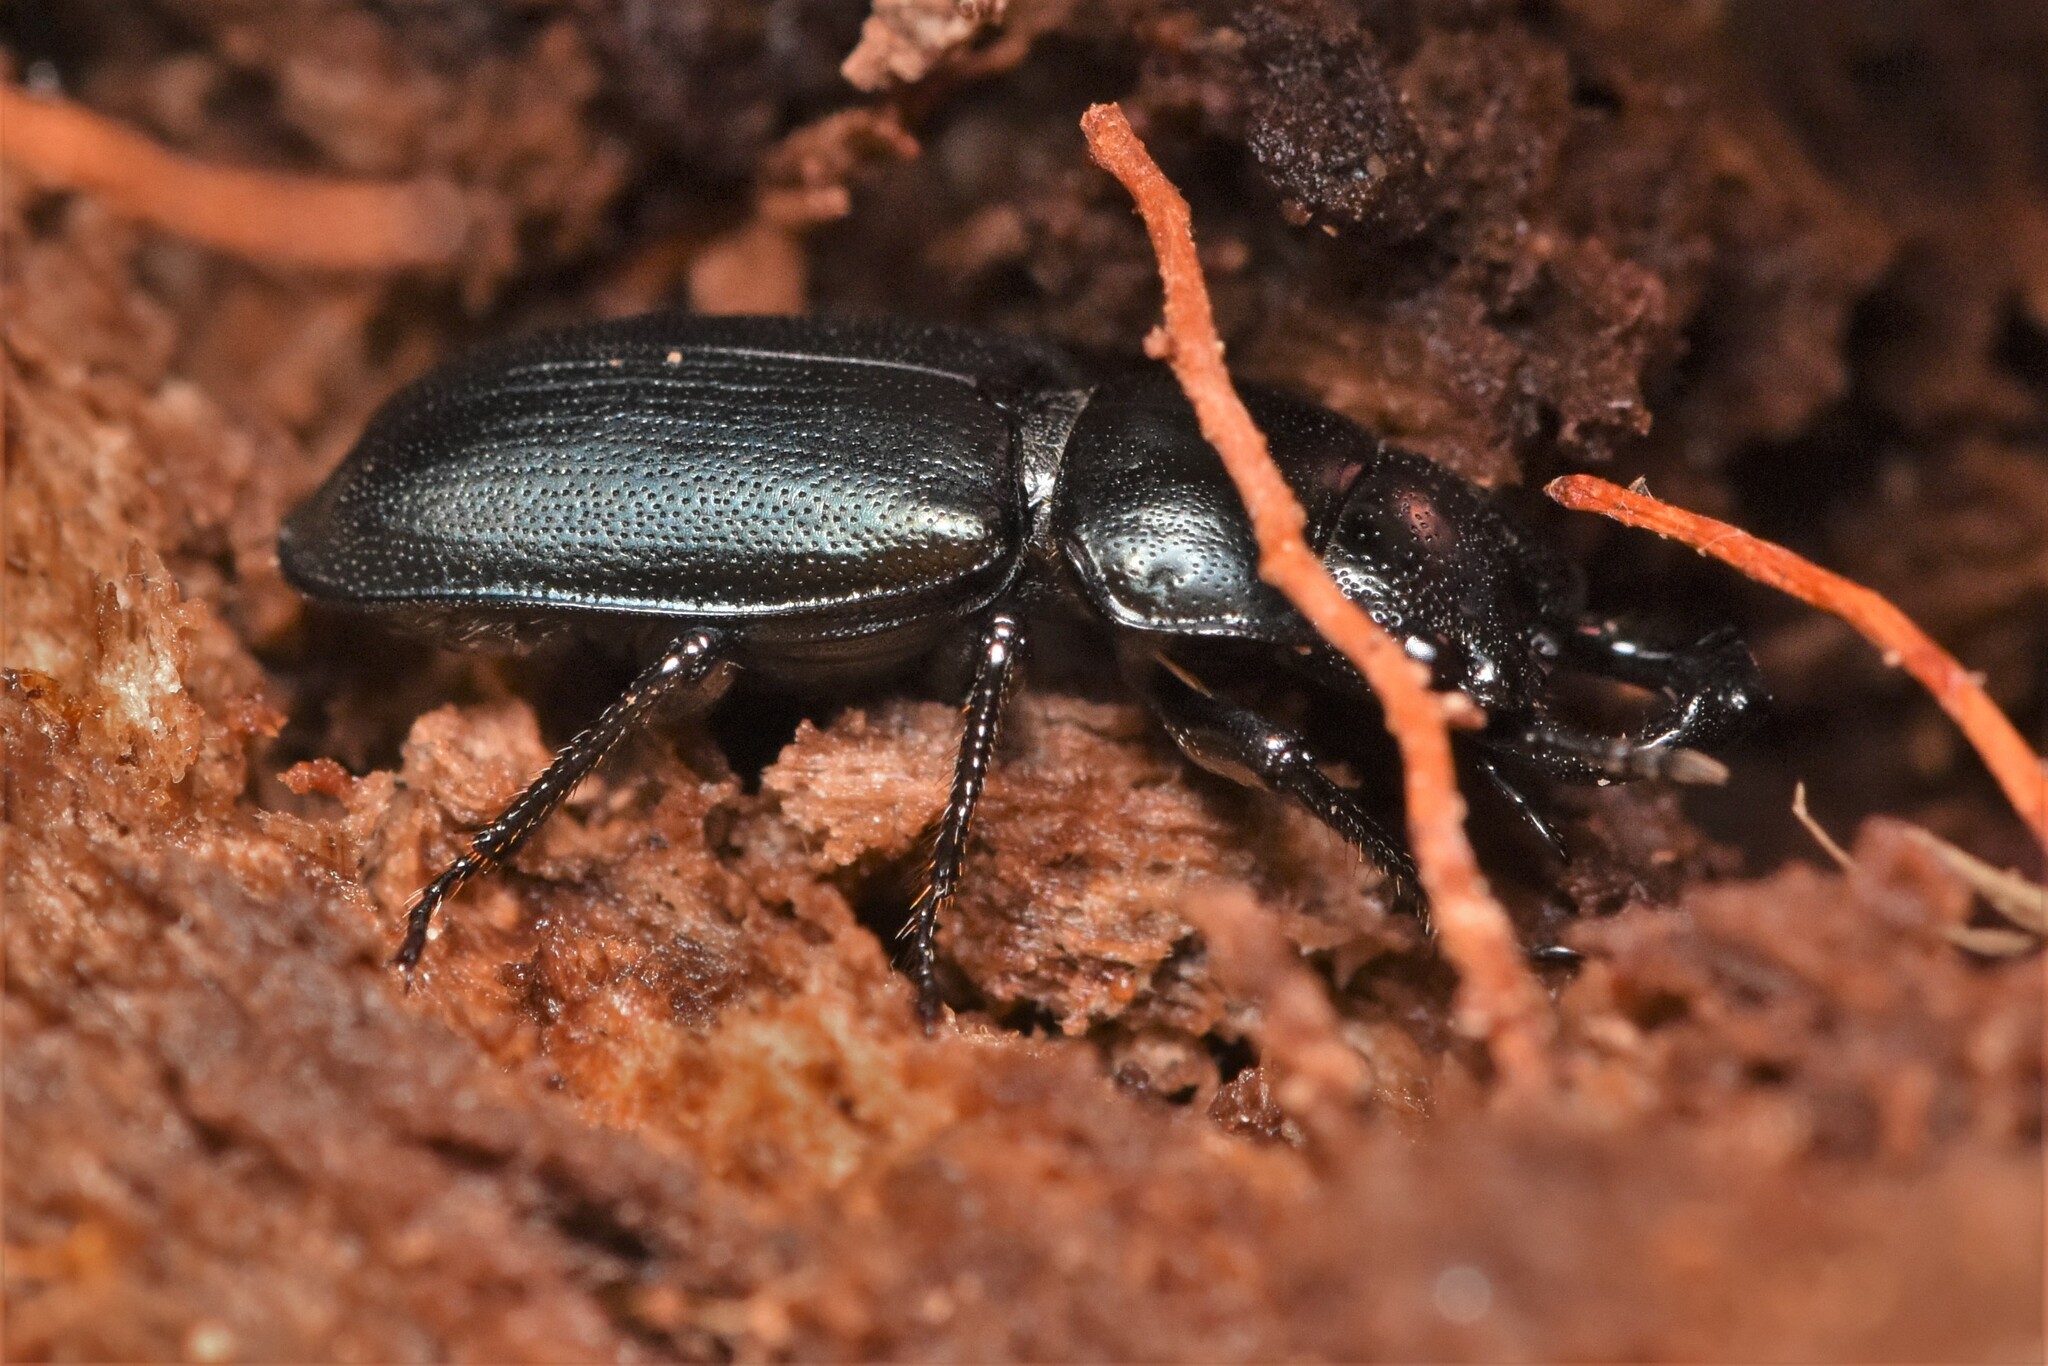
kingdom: Animalia
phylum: Arthropoda
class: Insecta
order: Coleoptera
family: Lucanidae
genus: Platycerus
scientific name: Platycerus oregonensis
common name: Oregon stag beetle
